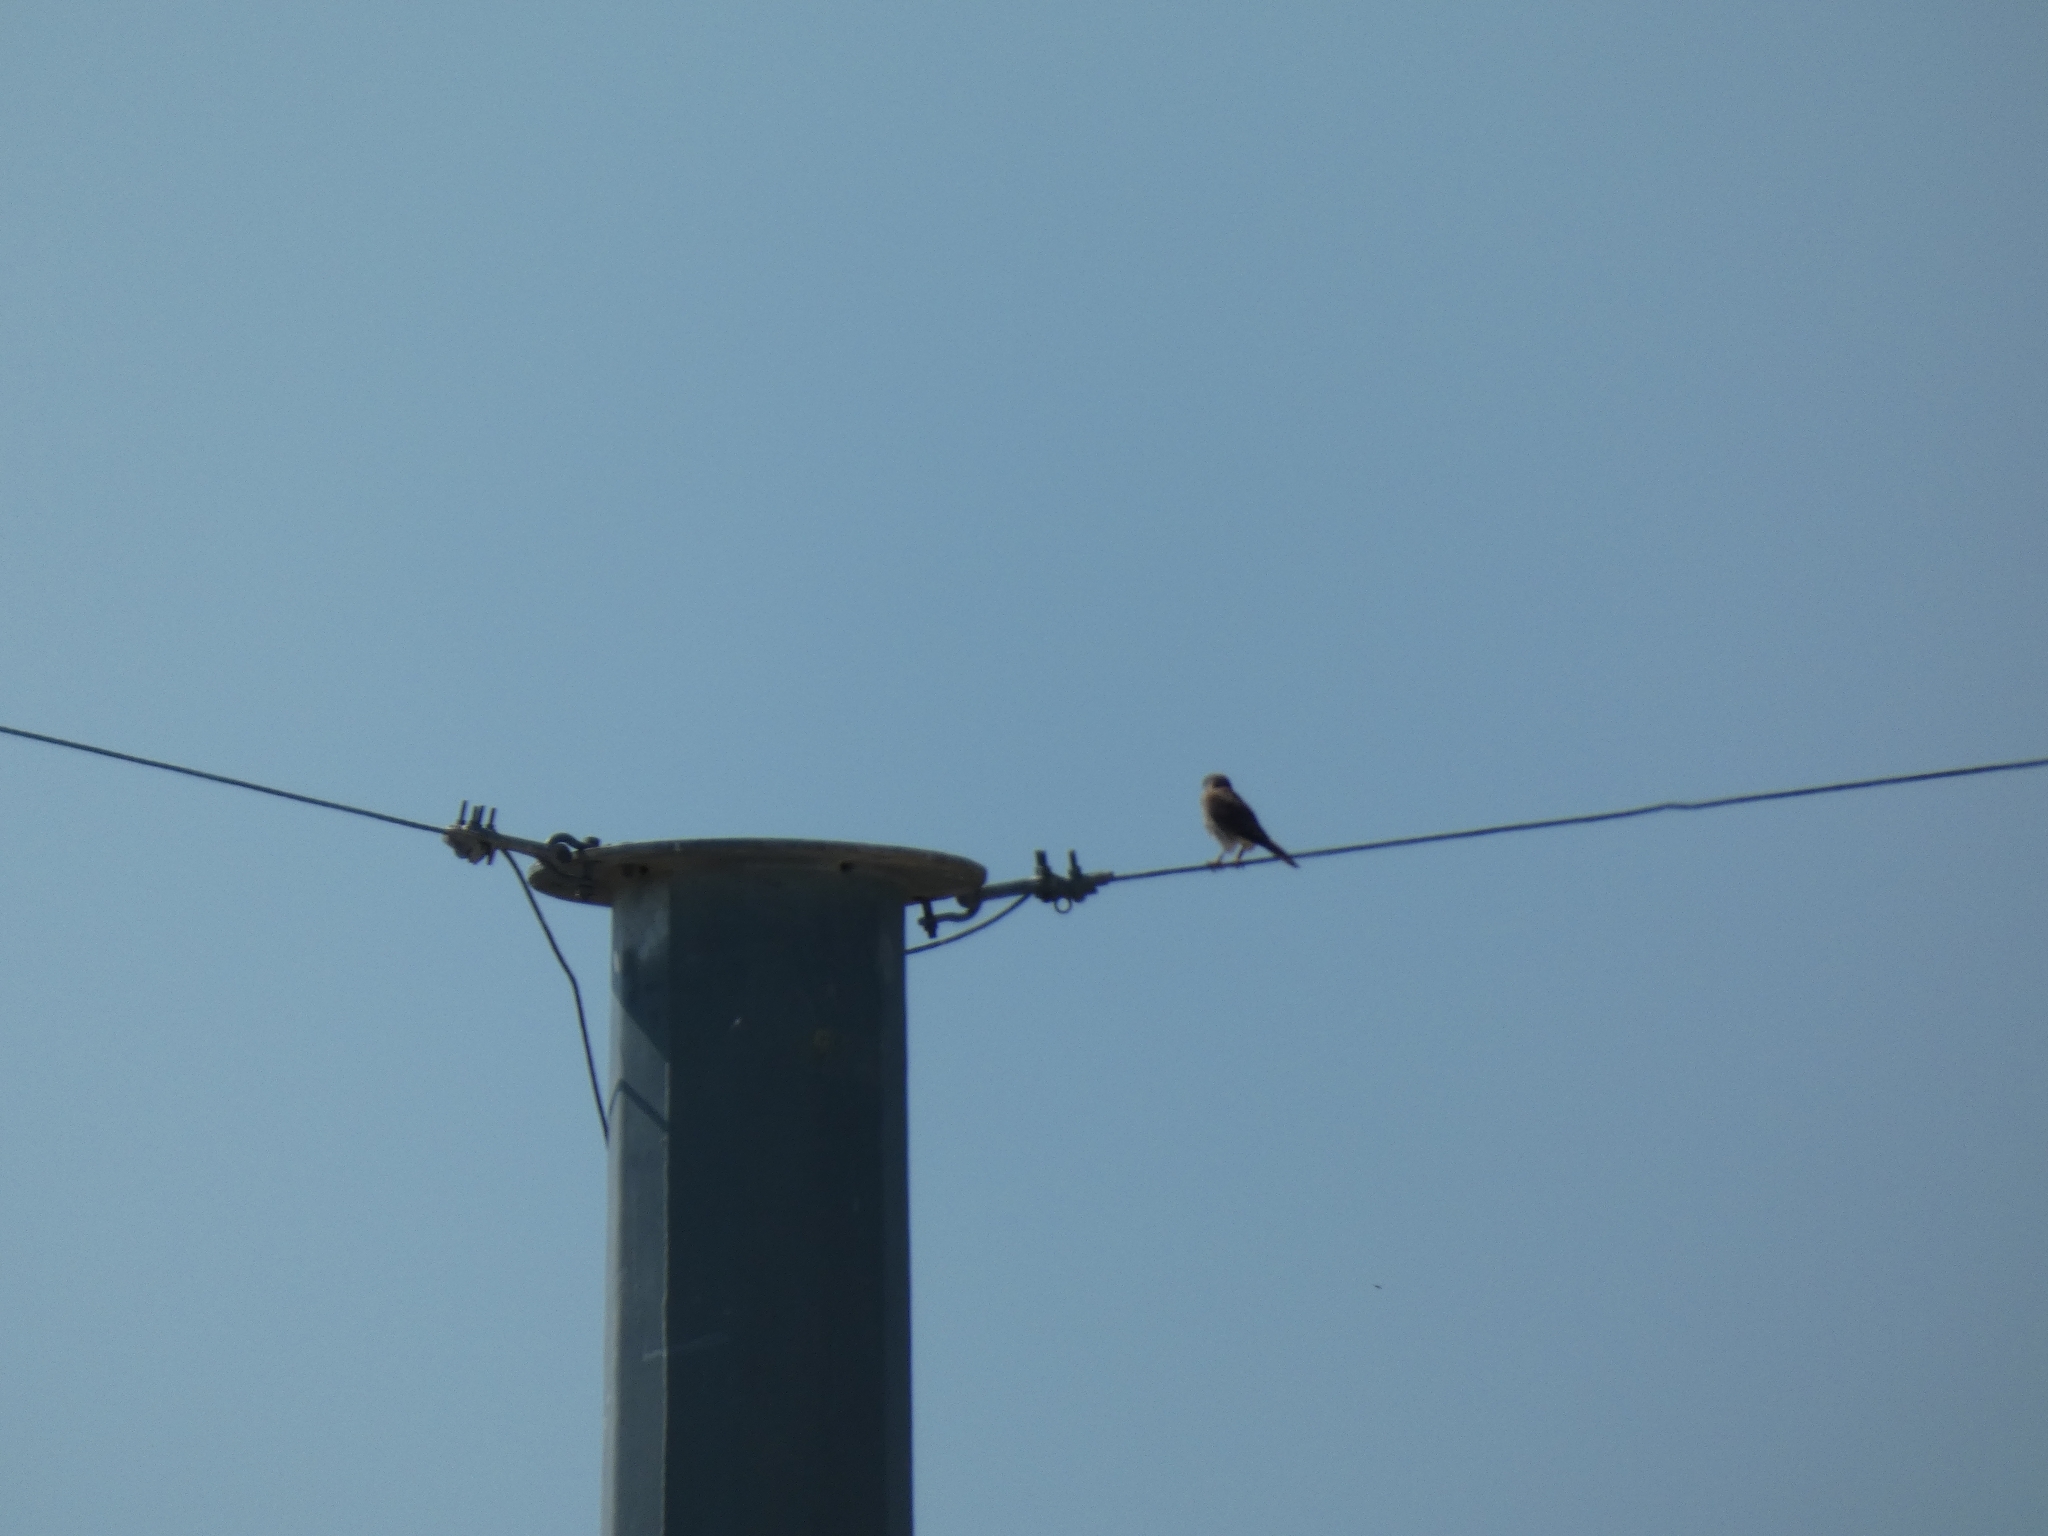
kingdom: Animalia
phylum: Chordata
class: Aves
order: Falconiformes
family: Falconidae
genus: Falco
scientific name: Falco sparverius
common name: American kestrel
